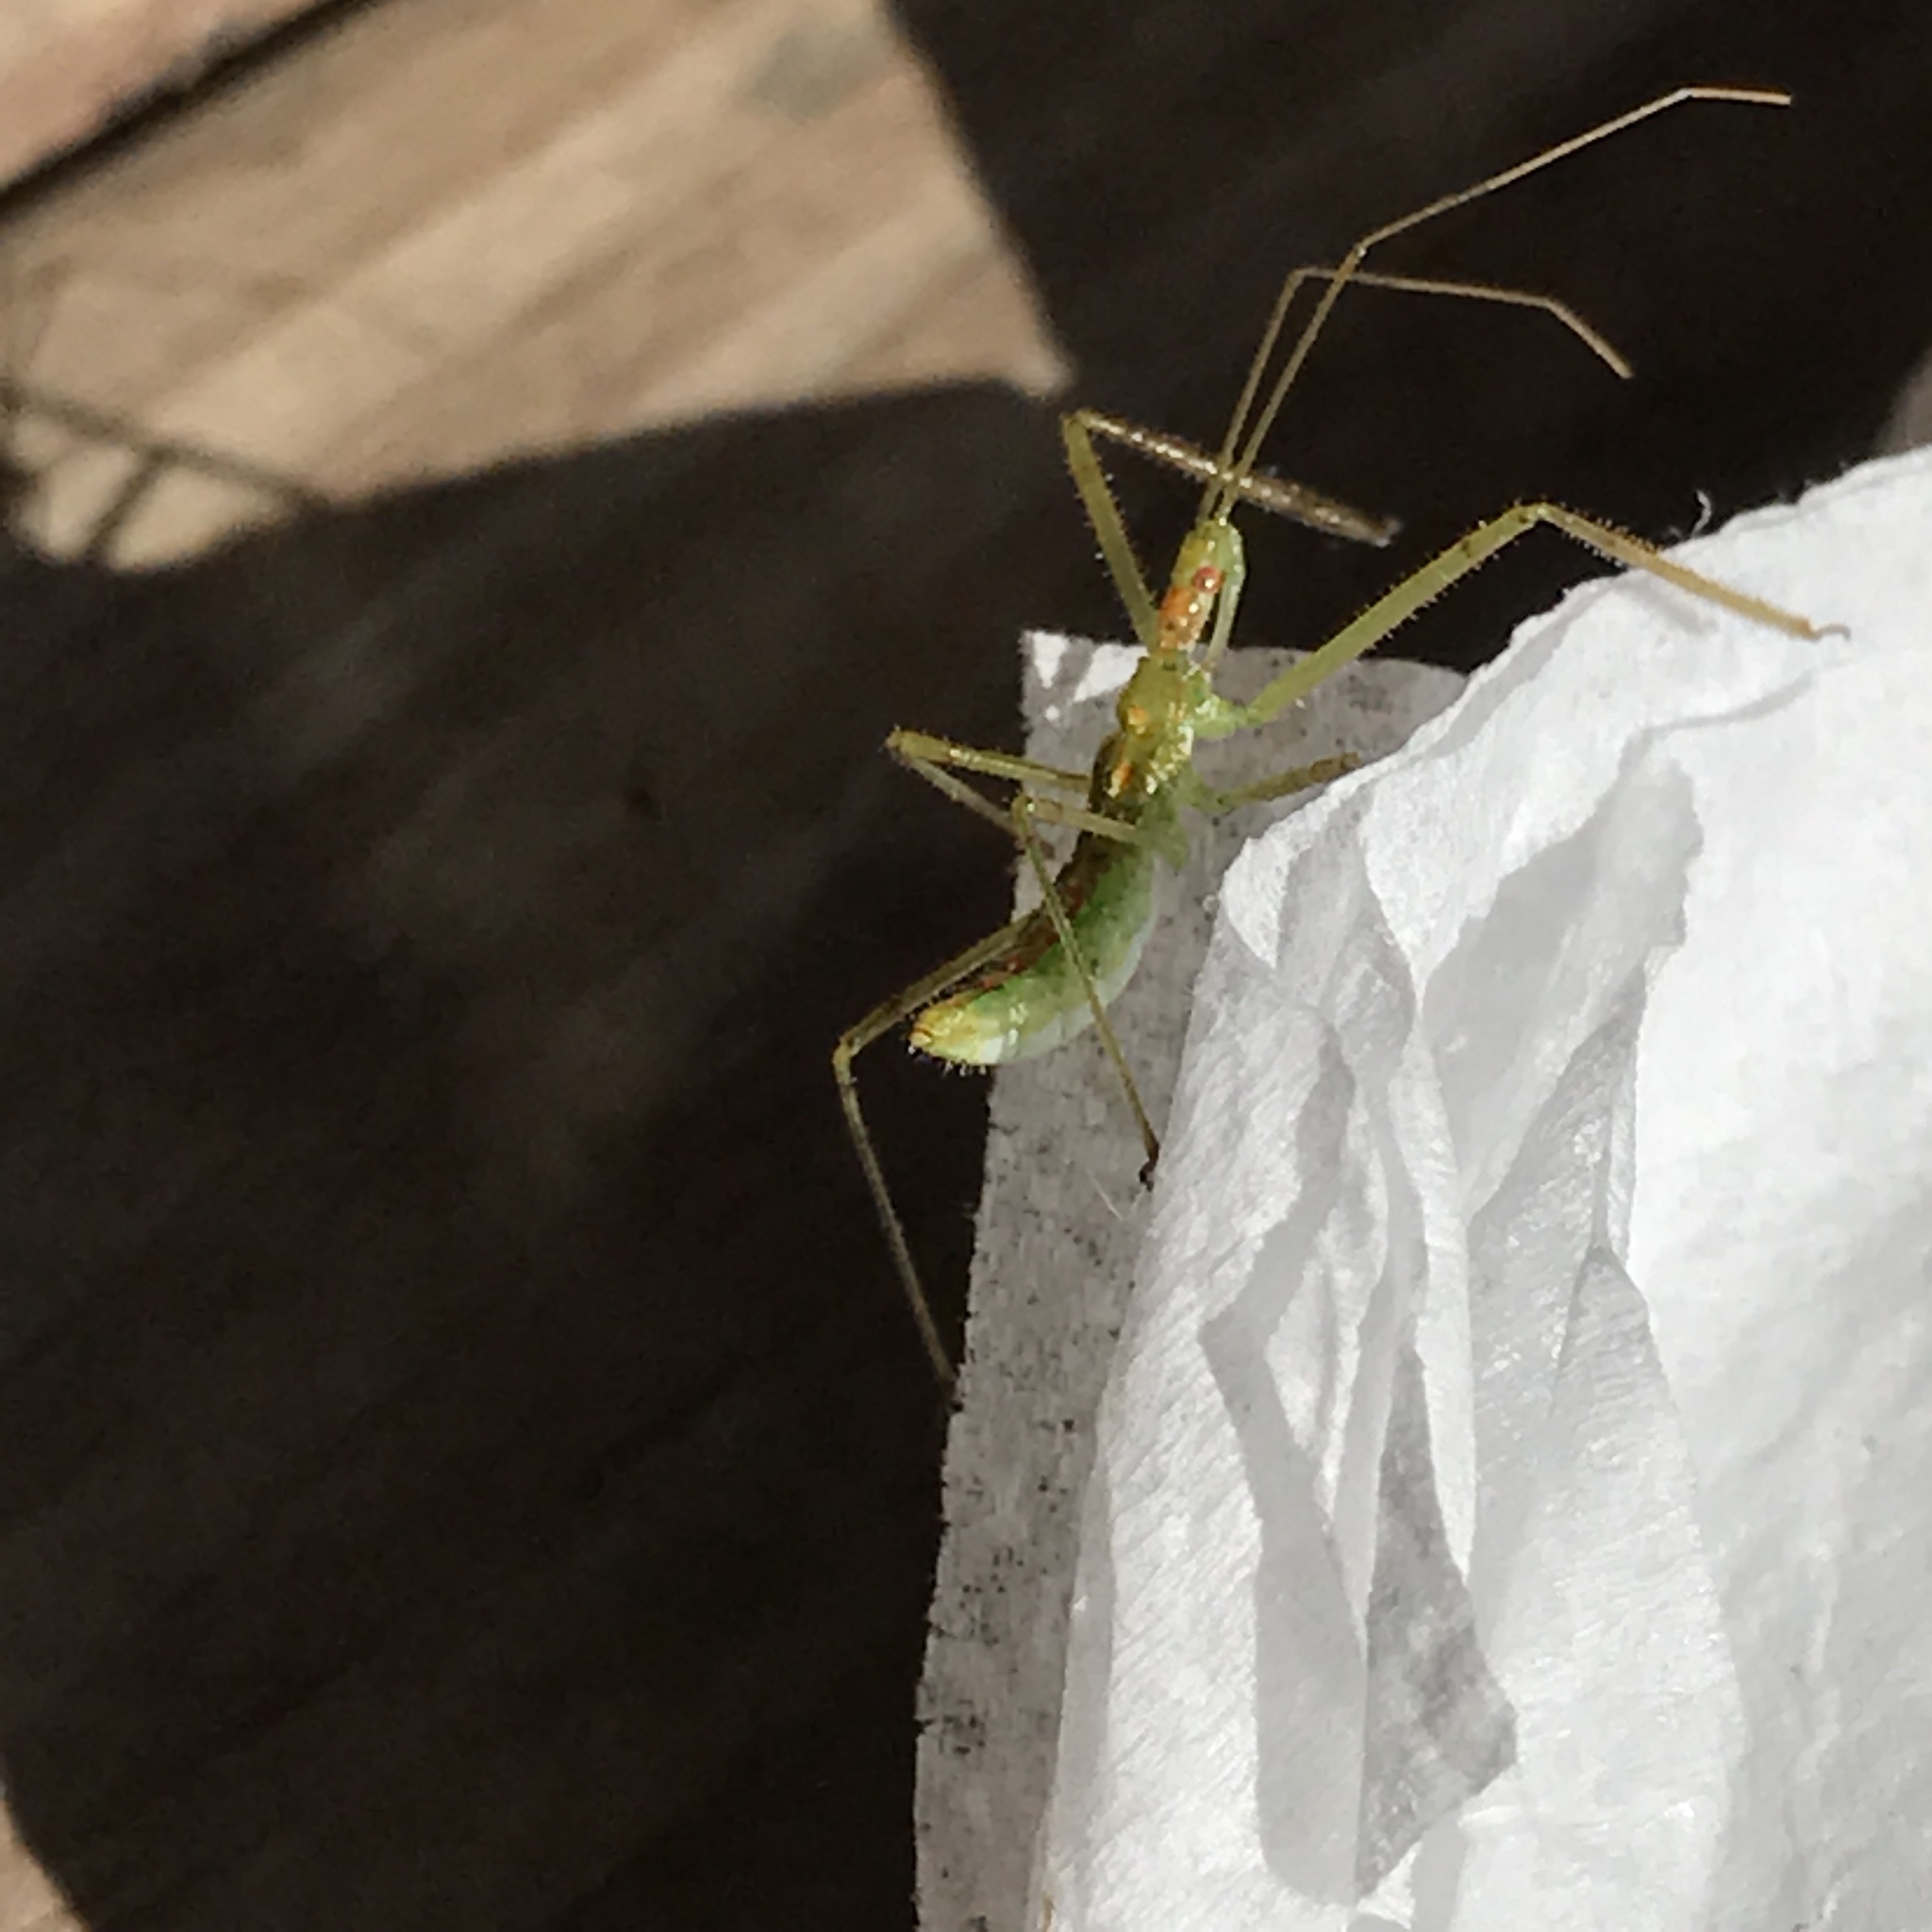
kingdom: Animalia
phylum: Arthropoda
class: Insecta
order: Hemiptera
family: Reduviidae
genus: Zelus
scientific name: Zelus luridus
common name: Pale green assassin bug
